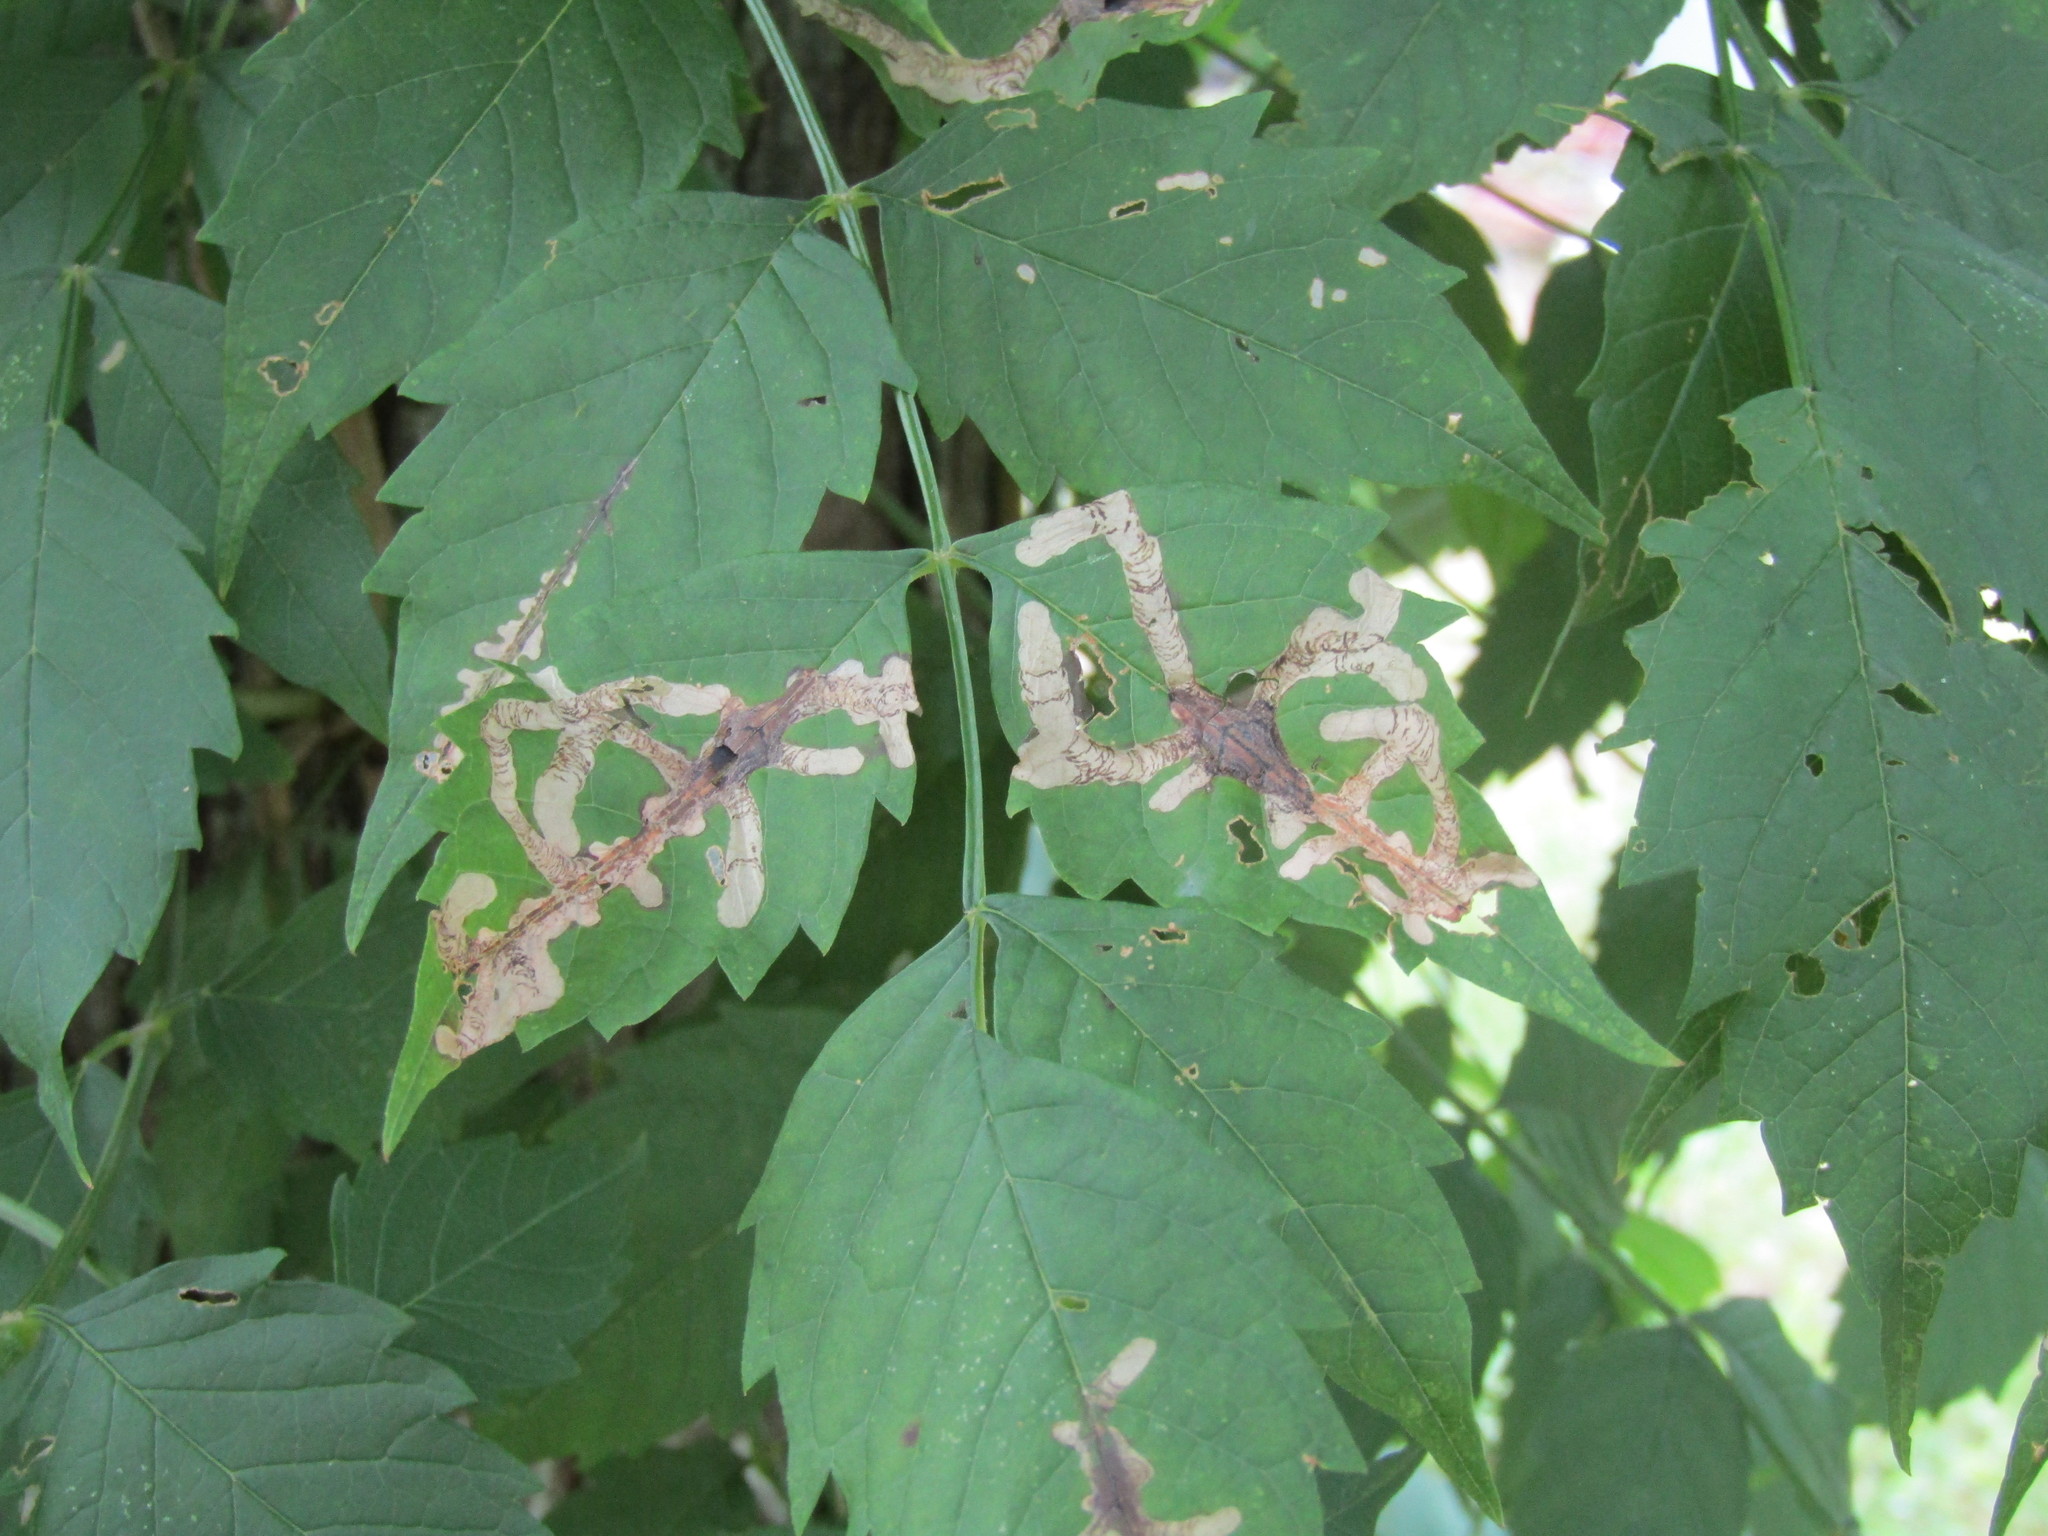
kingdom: Animalia
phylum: Arthropoda
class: Insecta
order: Coleoptera
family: Chrysomelidae
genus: Octotoma
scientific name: Octotoma plicatula
